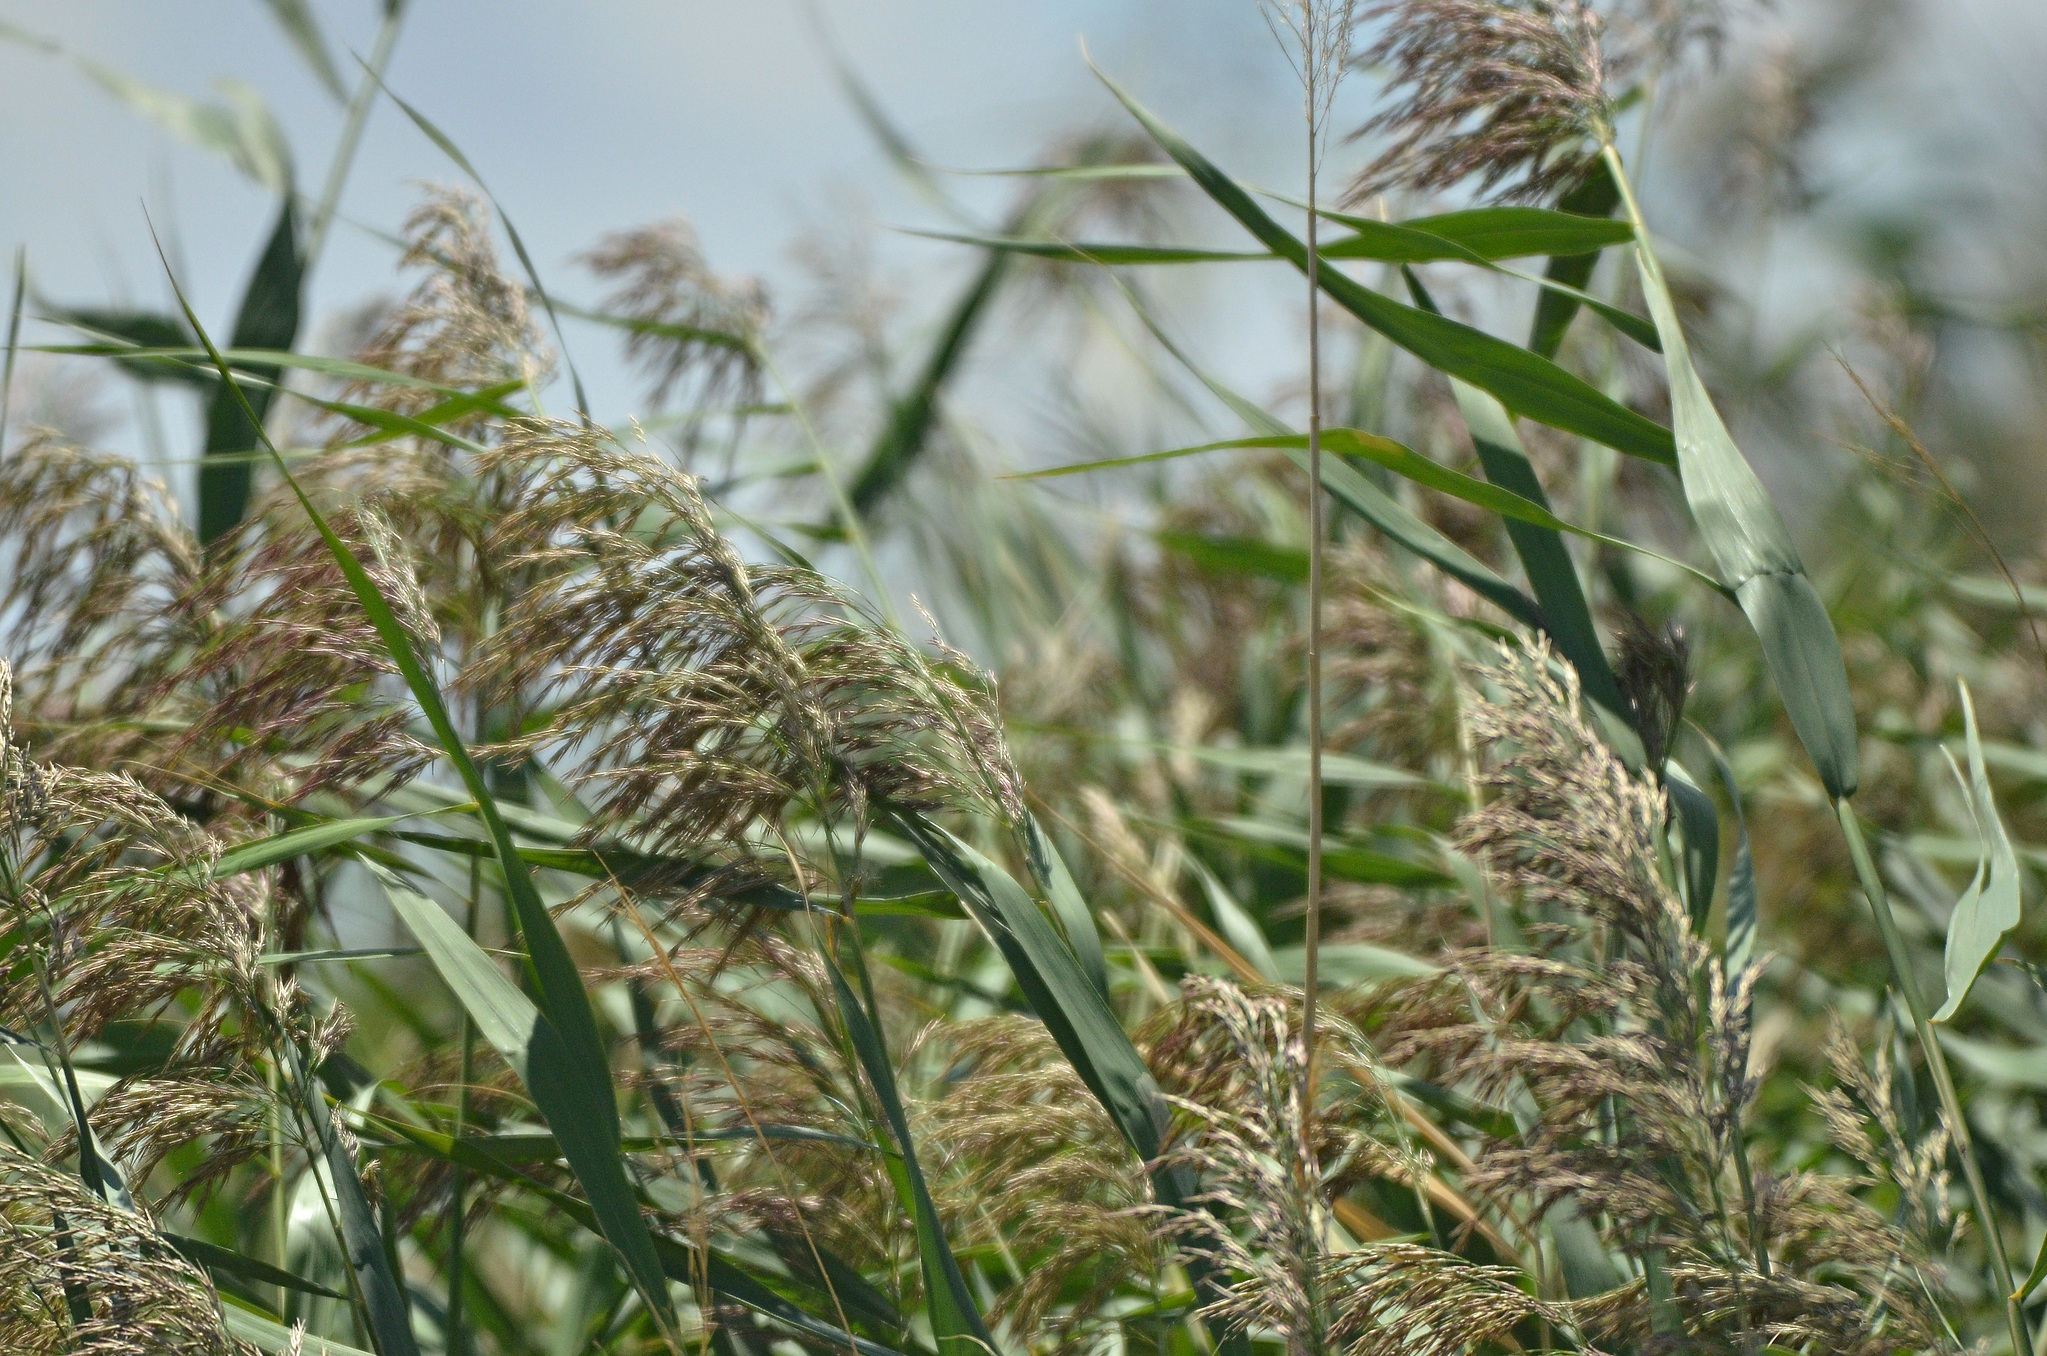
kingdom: Plantae
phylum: Tracheophyta
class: Liliopsida
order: Poales
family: Poaceae
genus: Phragmites
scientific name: Phragmites australis
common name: Common reed
